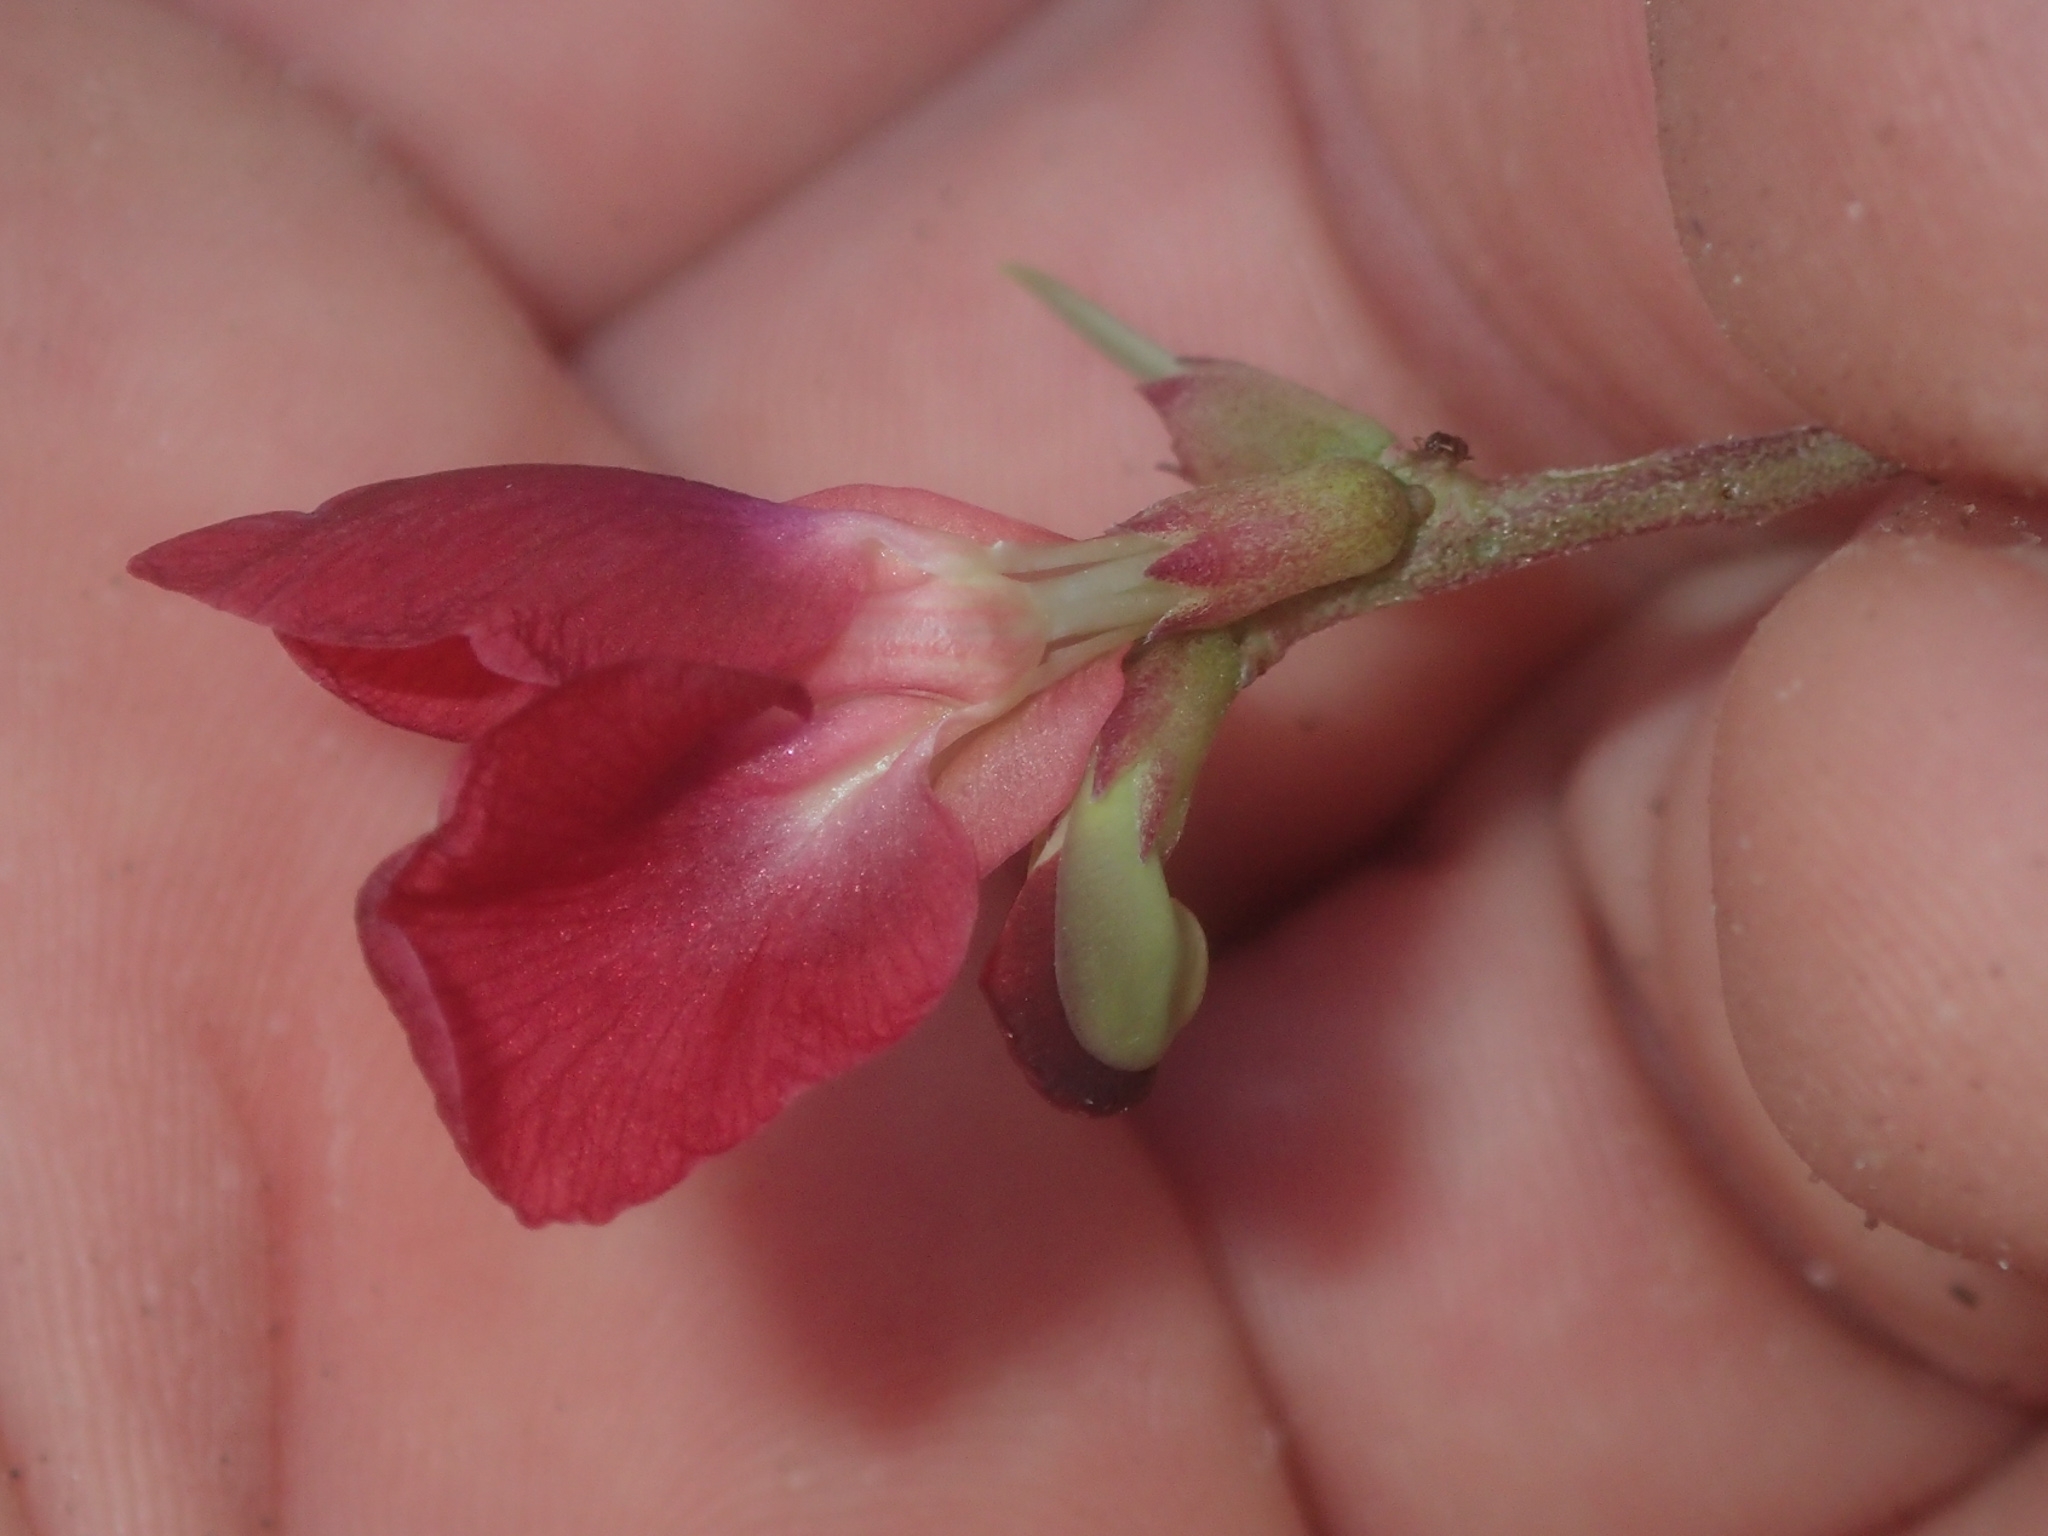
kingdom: Plantae
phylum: Tracheophyta
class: Magnoliopsida
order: Fabales
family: Fabaceae
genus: Macroptilium
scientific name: Macroptilium lathyroides
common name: Wild bushbean
